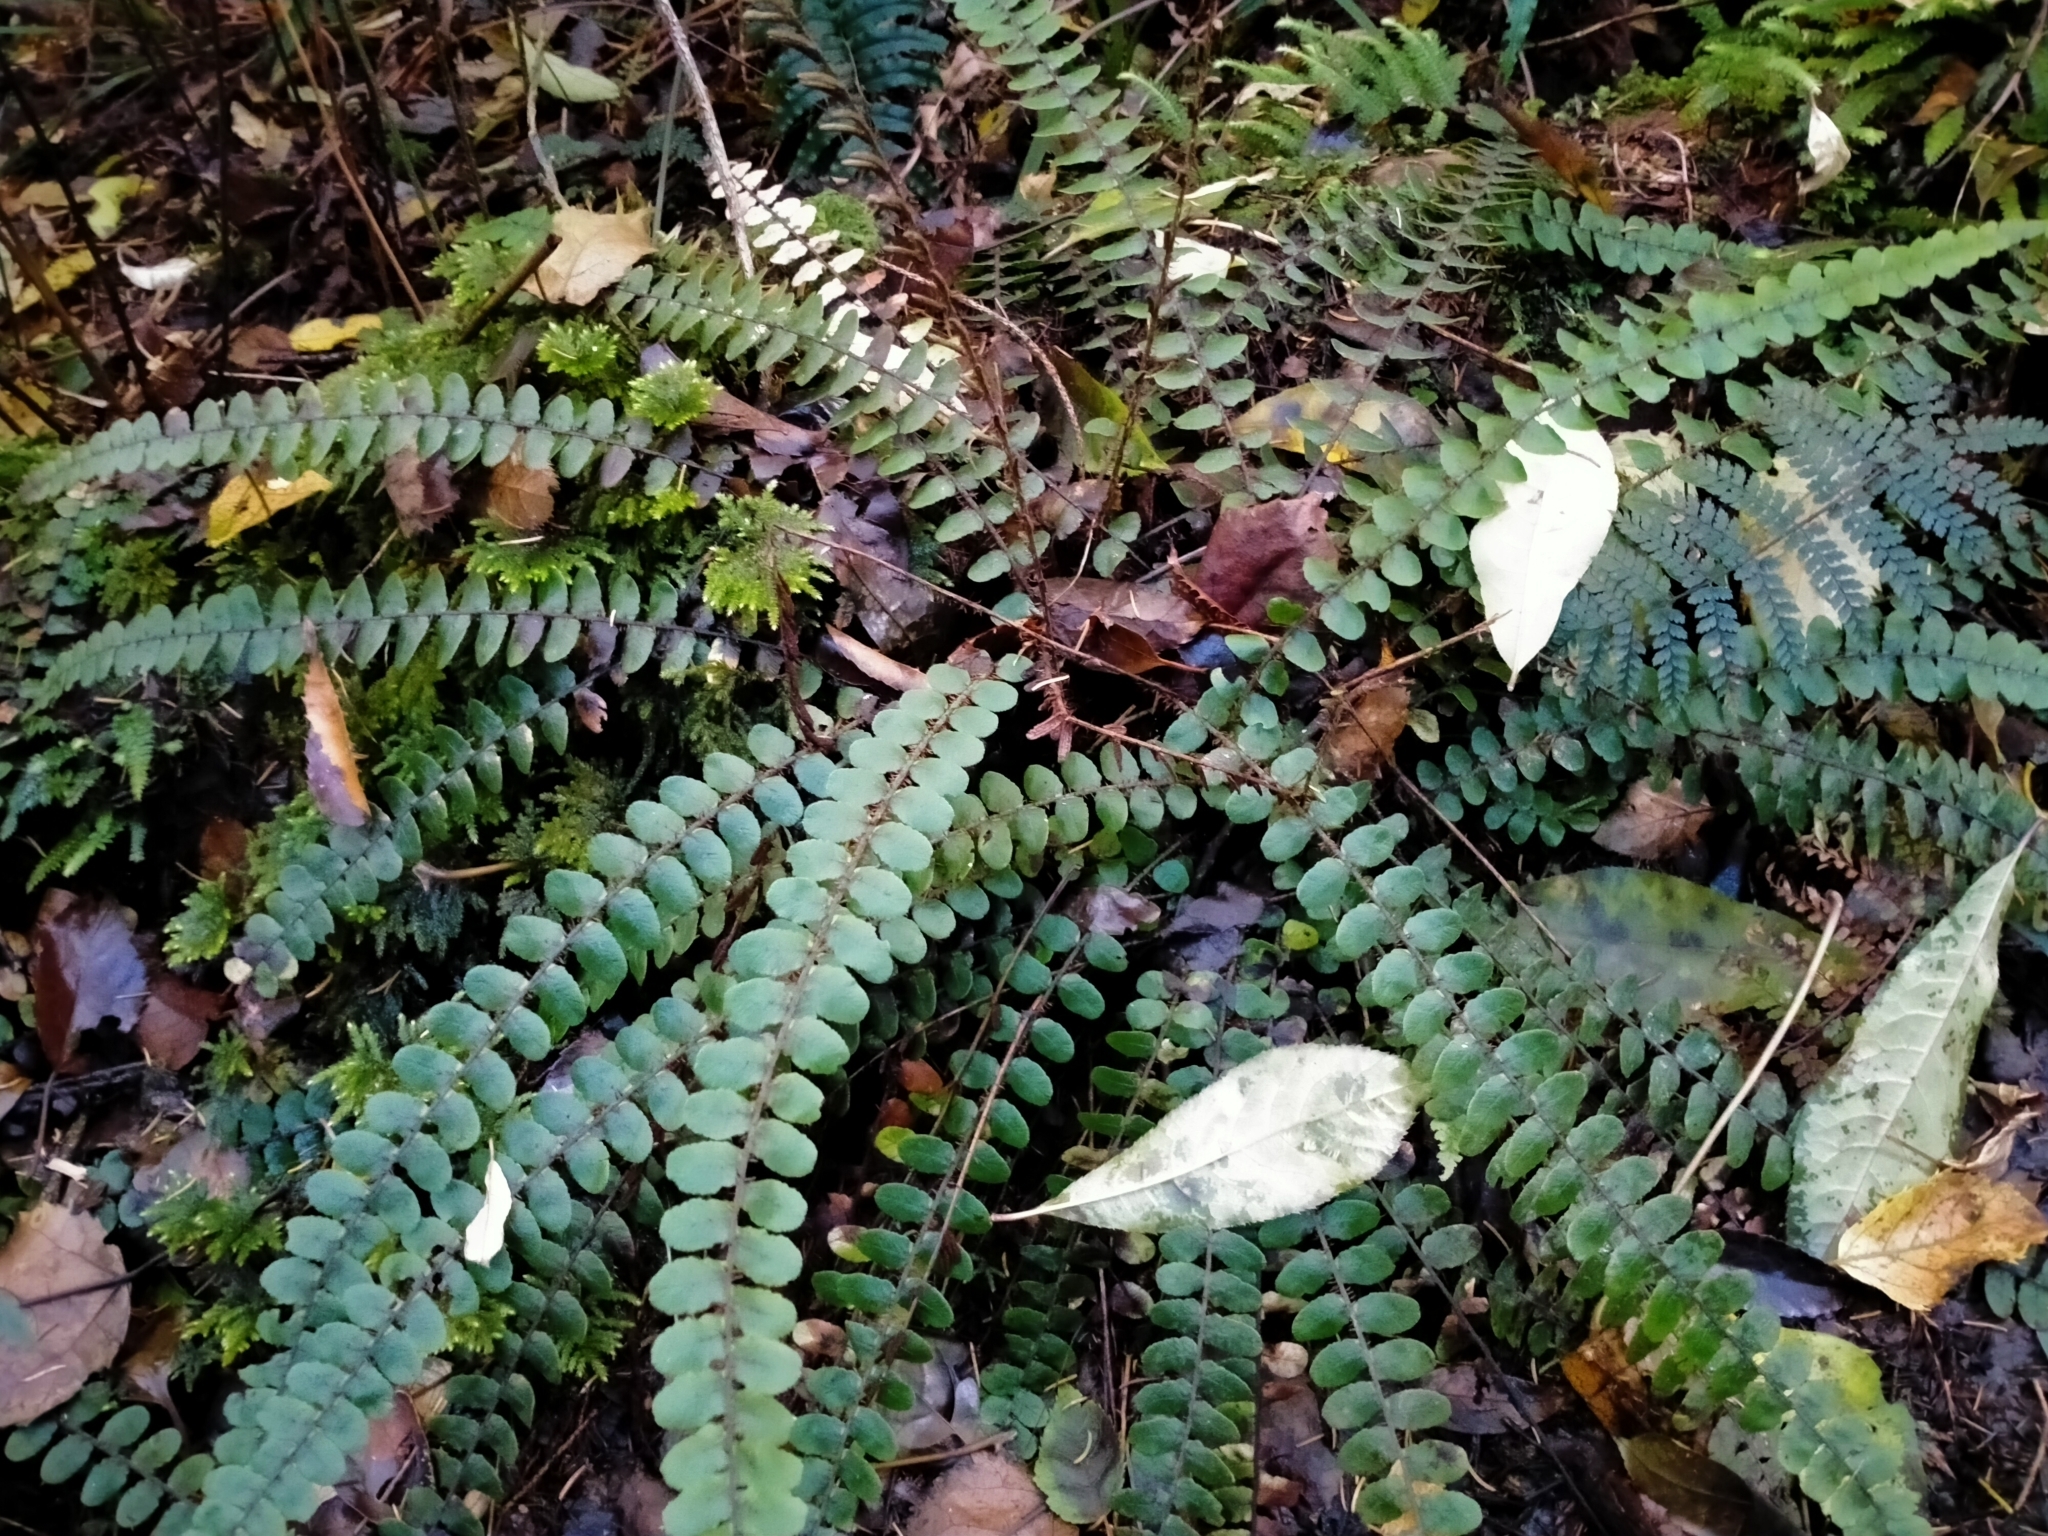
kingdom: Plantae
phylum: Tracheophyta
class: Polypodiopsida
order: Polypodiales
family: Blechnaceae
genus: Cranfillia
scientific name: Cranfillia fluviatilis
